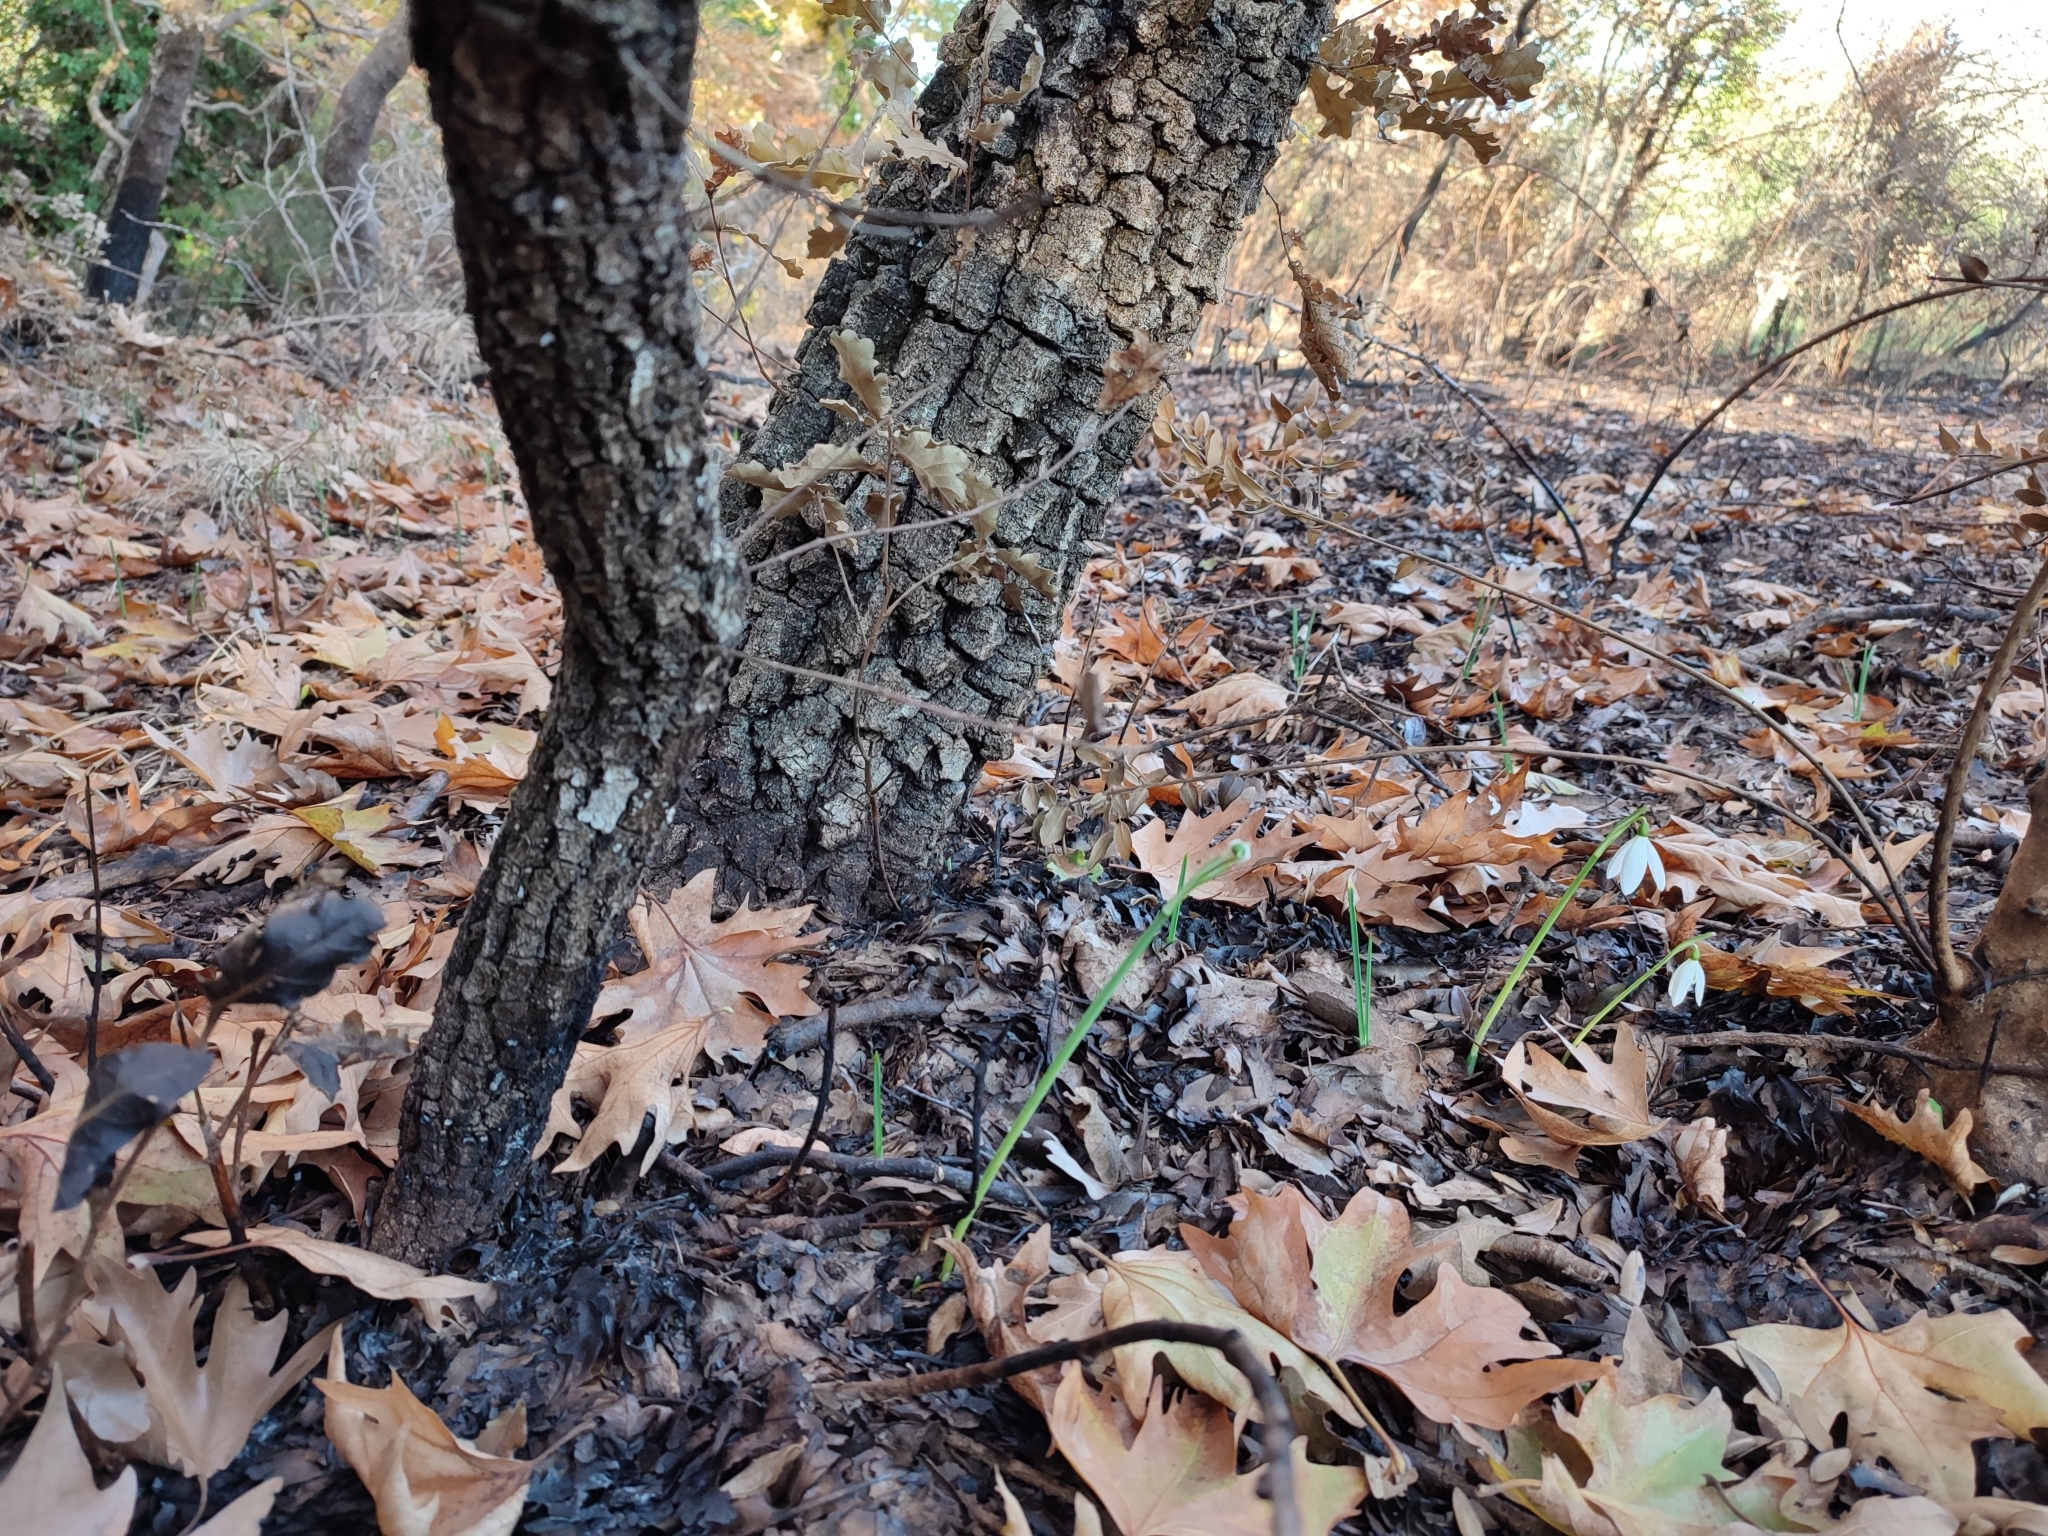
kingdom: Plantae
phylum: Tracheophyta
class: Liliopsida
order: Asparagales
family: Amaryllidaceae
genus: Galanthus
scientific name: Galanthus reginae-olgae
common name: Queen olga's snowdrop
